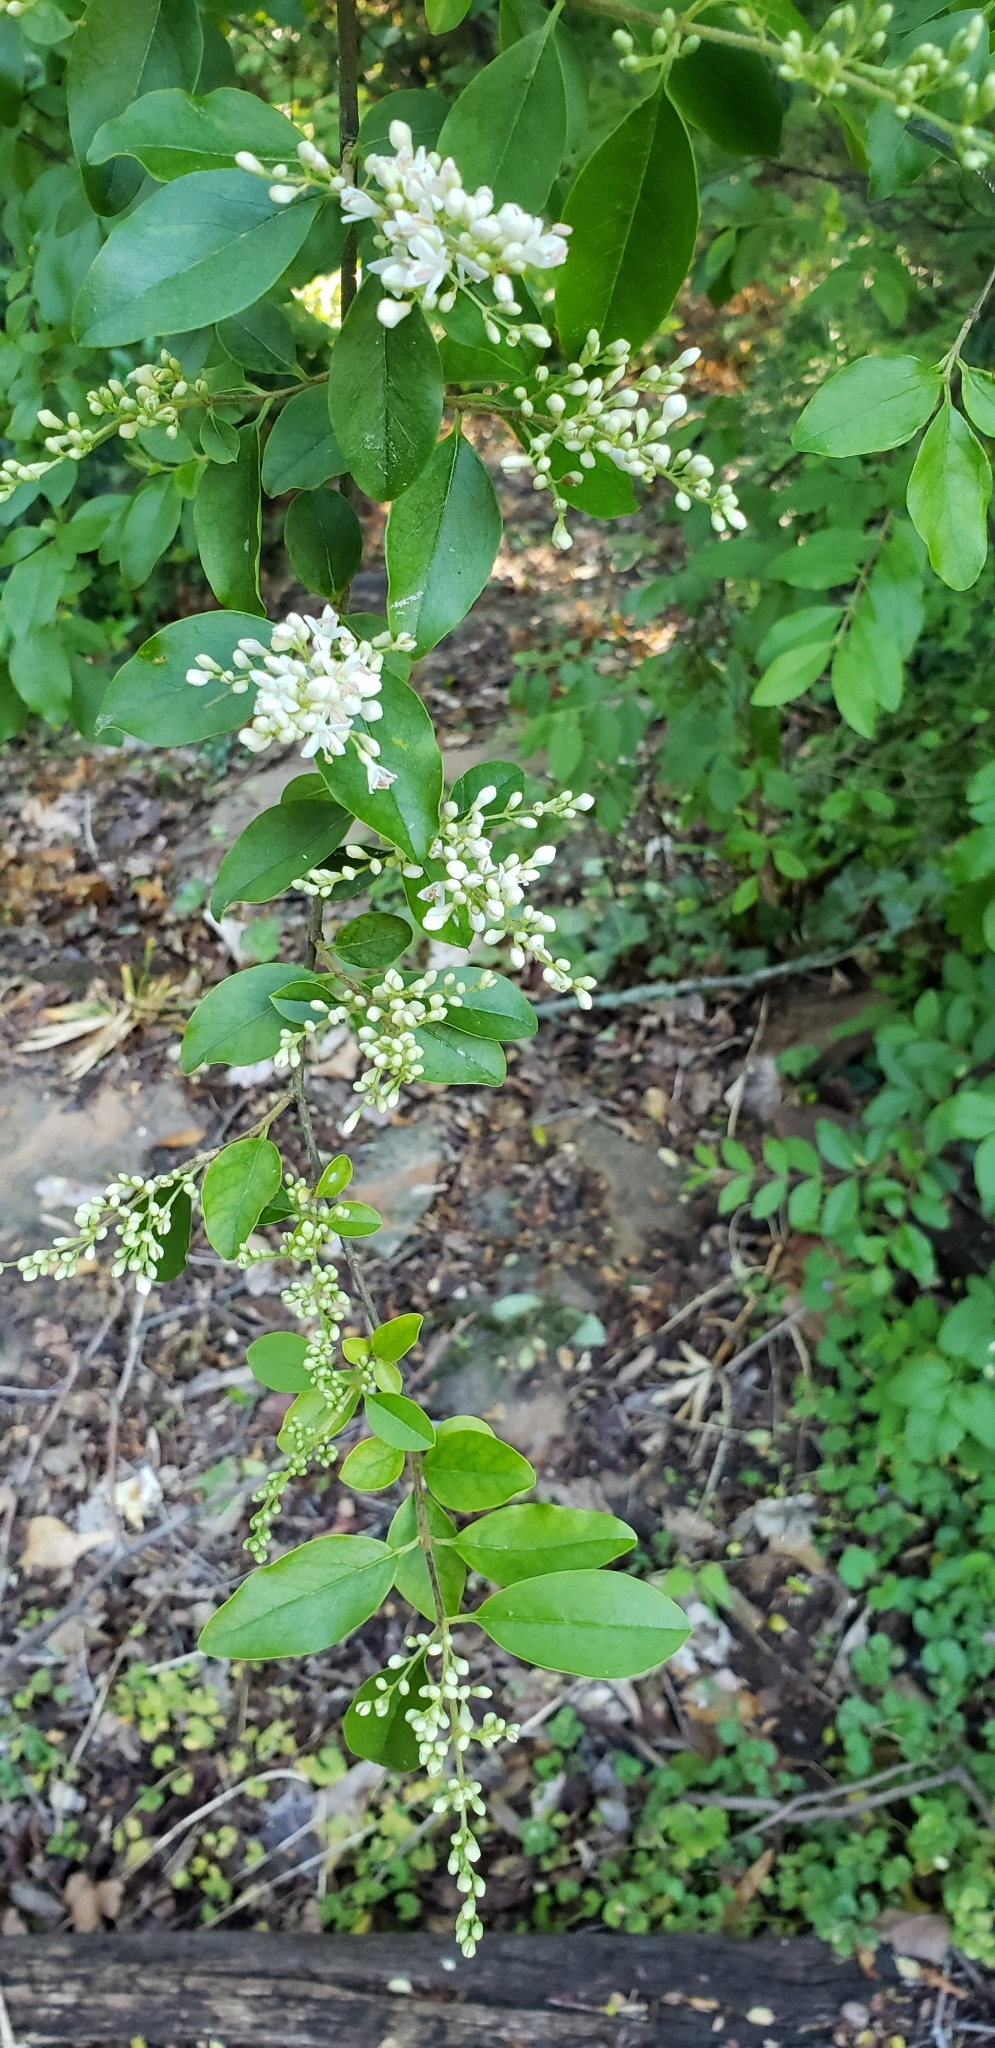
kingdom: Plantae
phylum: Tracheophyta
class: Magnoliopsida
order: Lamiales
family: Oleaceae
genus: Ligustrum
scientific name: Ligustrum sinense
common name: Chinese privet
